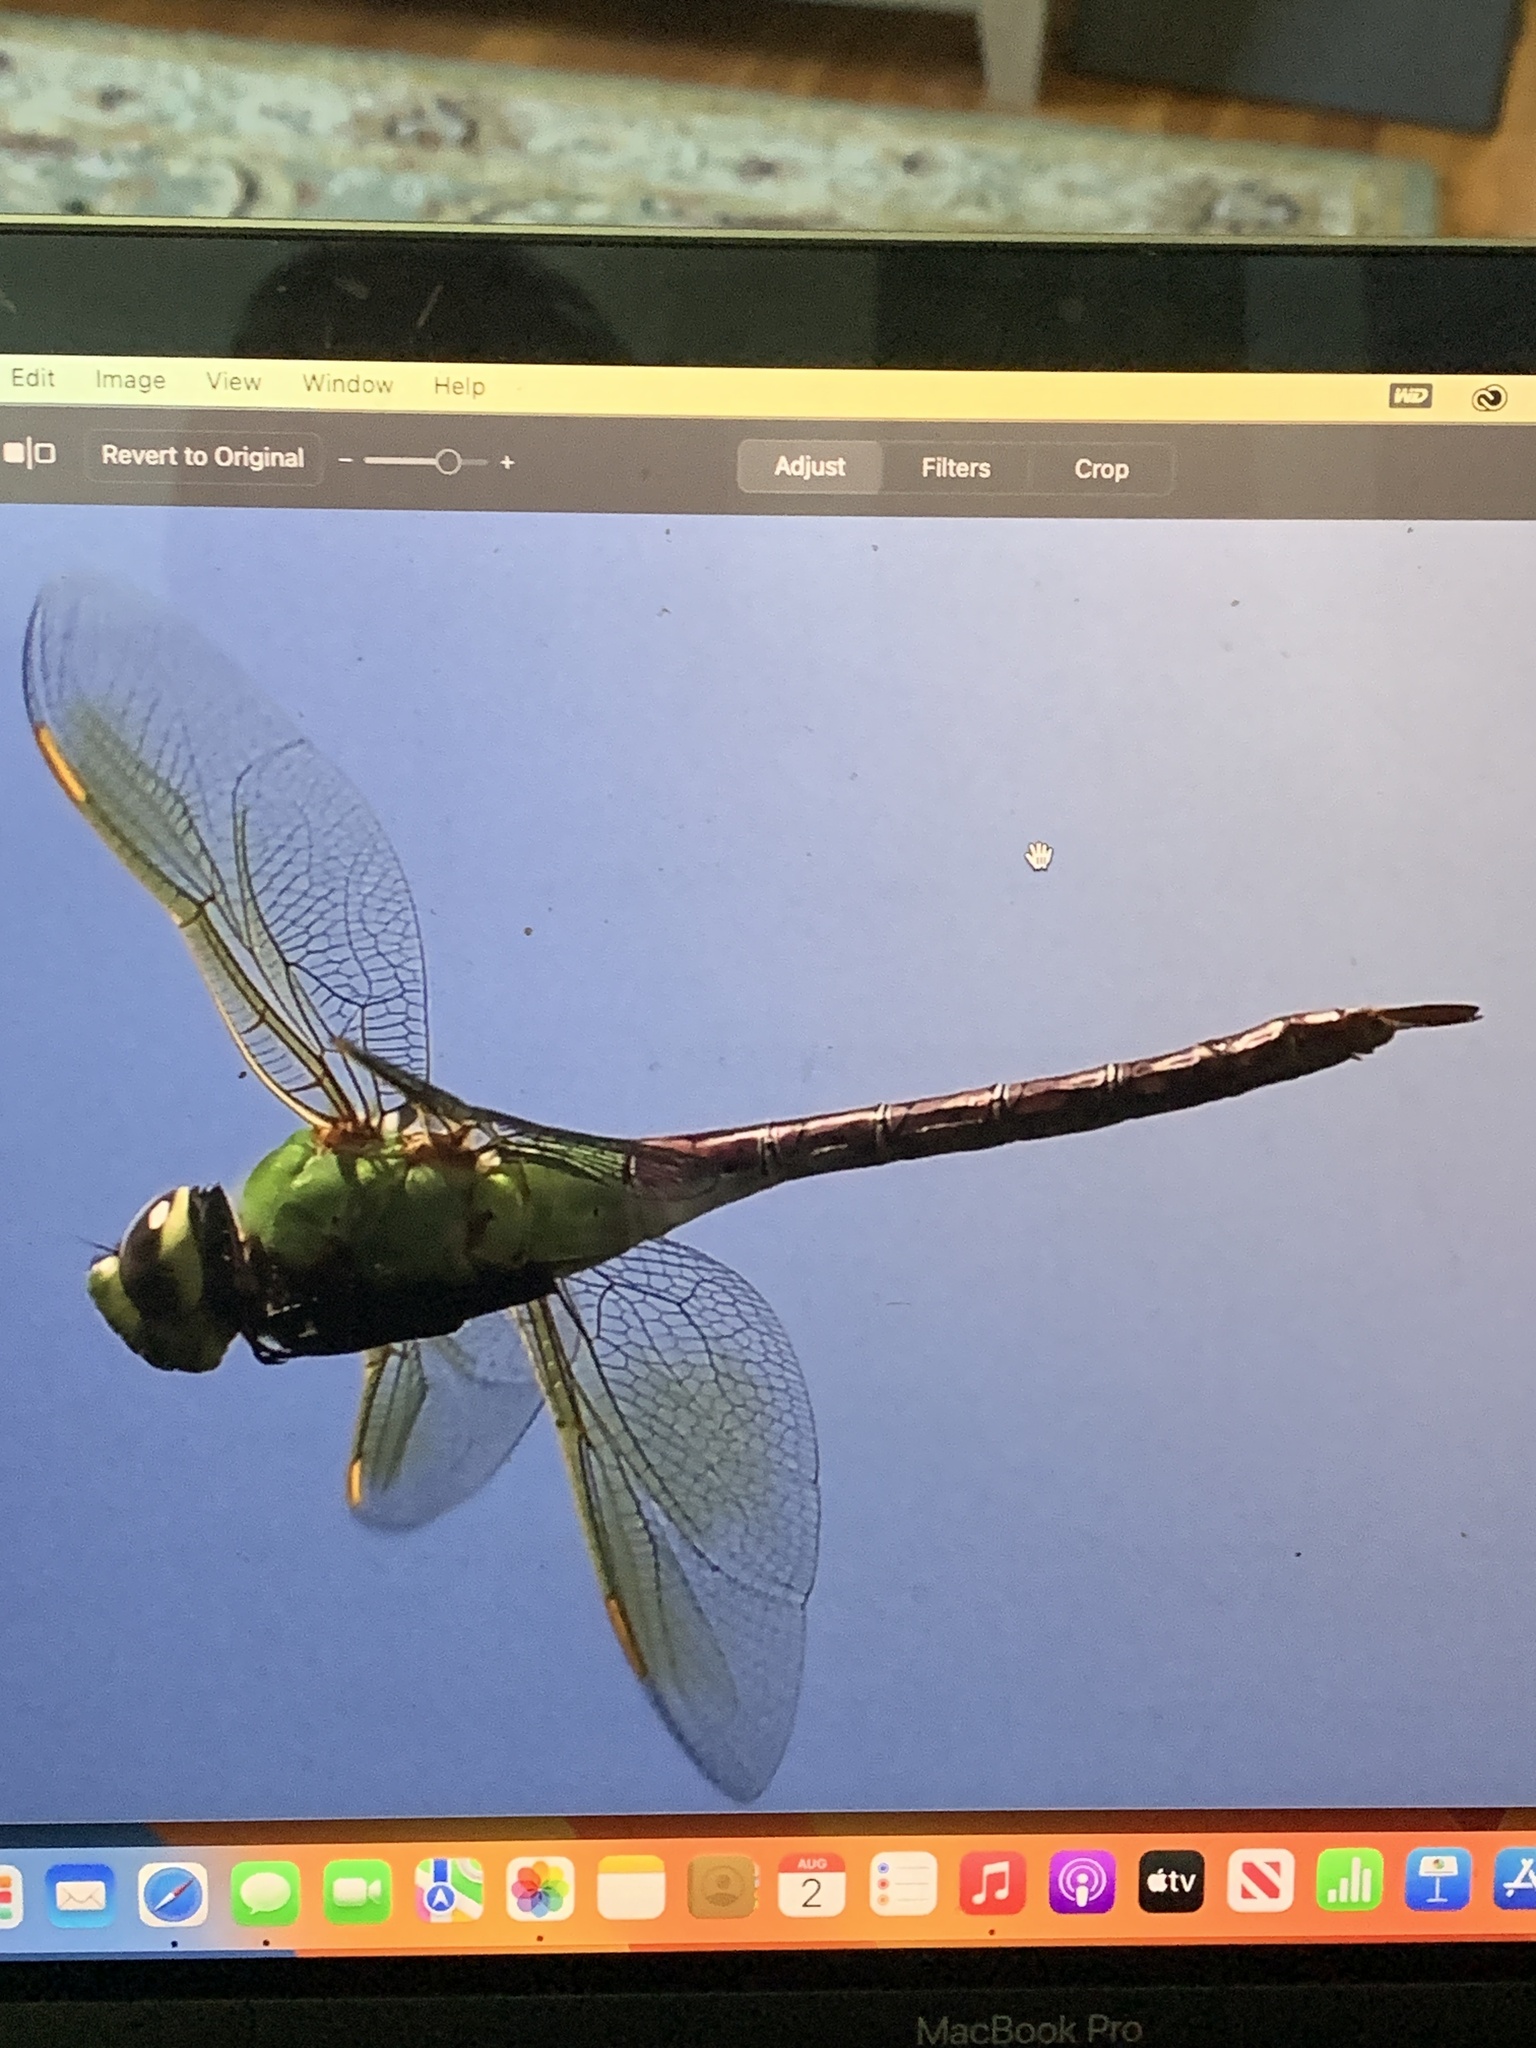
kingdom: Animalia
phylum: Arthropoda
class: Insecta
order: Odonata
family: Aeshnidae
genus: Anax
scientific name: Anax junius
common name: Common green darner
